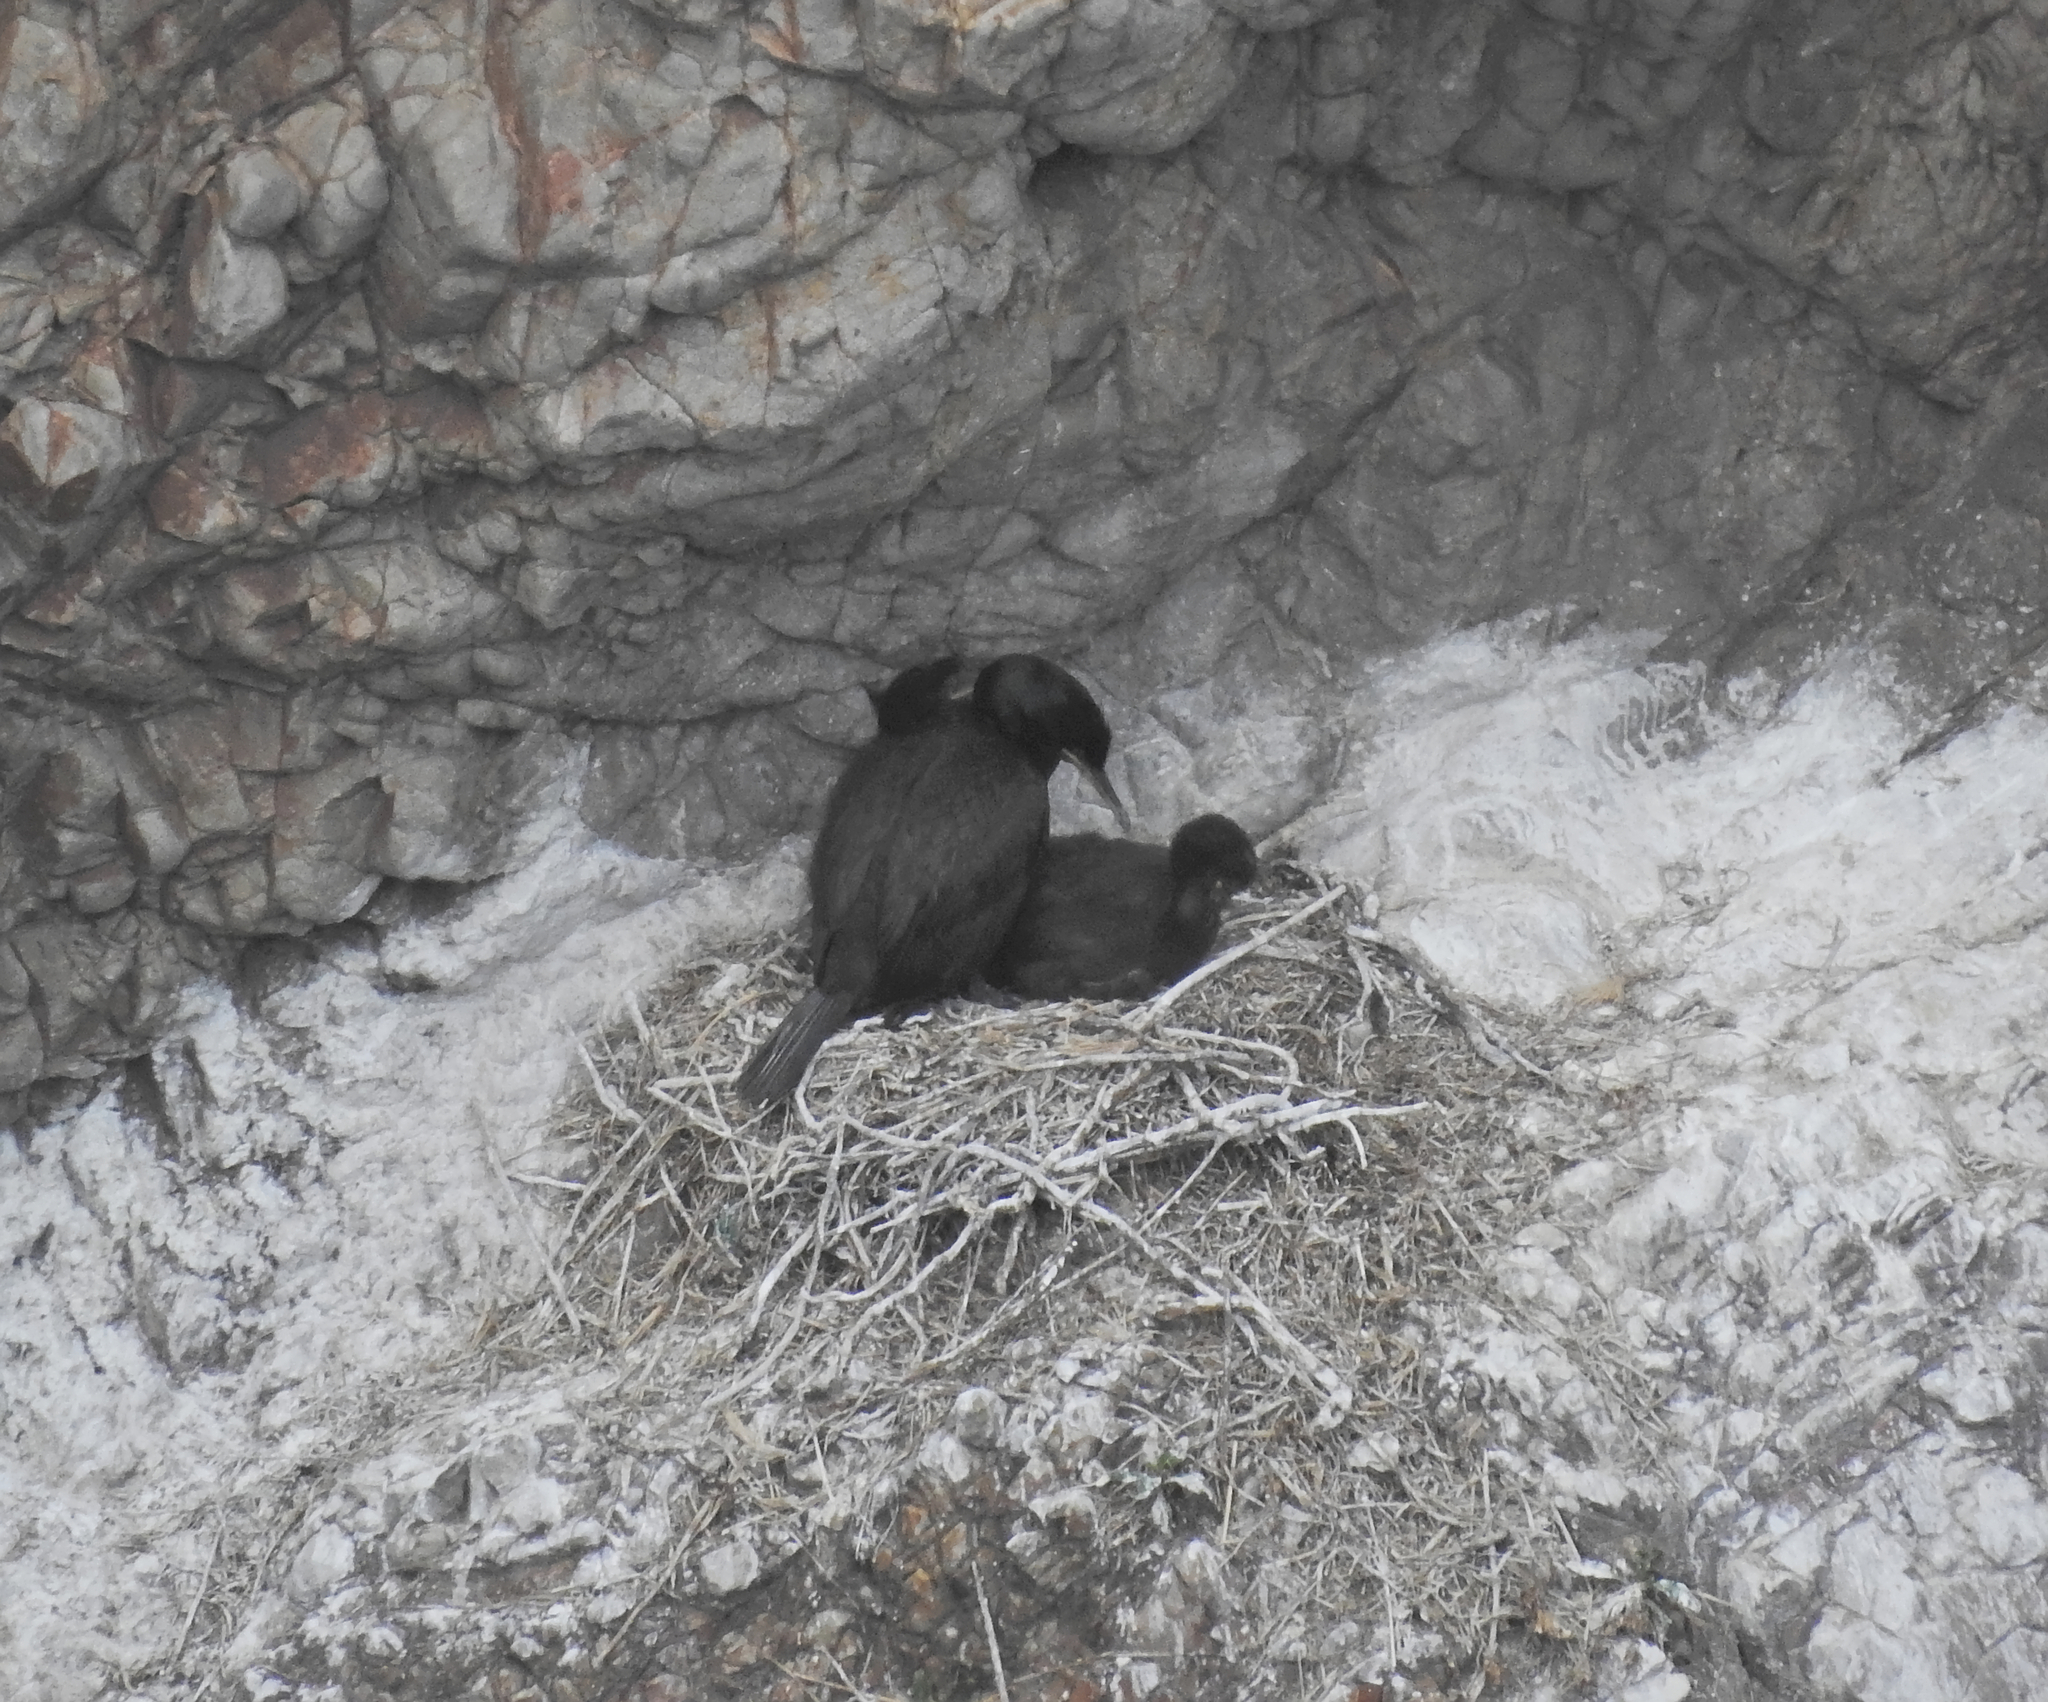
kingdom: Animalia
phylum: Chordata
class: Aves
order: Suliformes
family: Phalacrocoracidae
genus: Phalacrocorax
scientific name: Phalacrocorax aristotelis
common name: European shag
